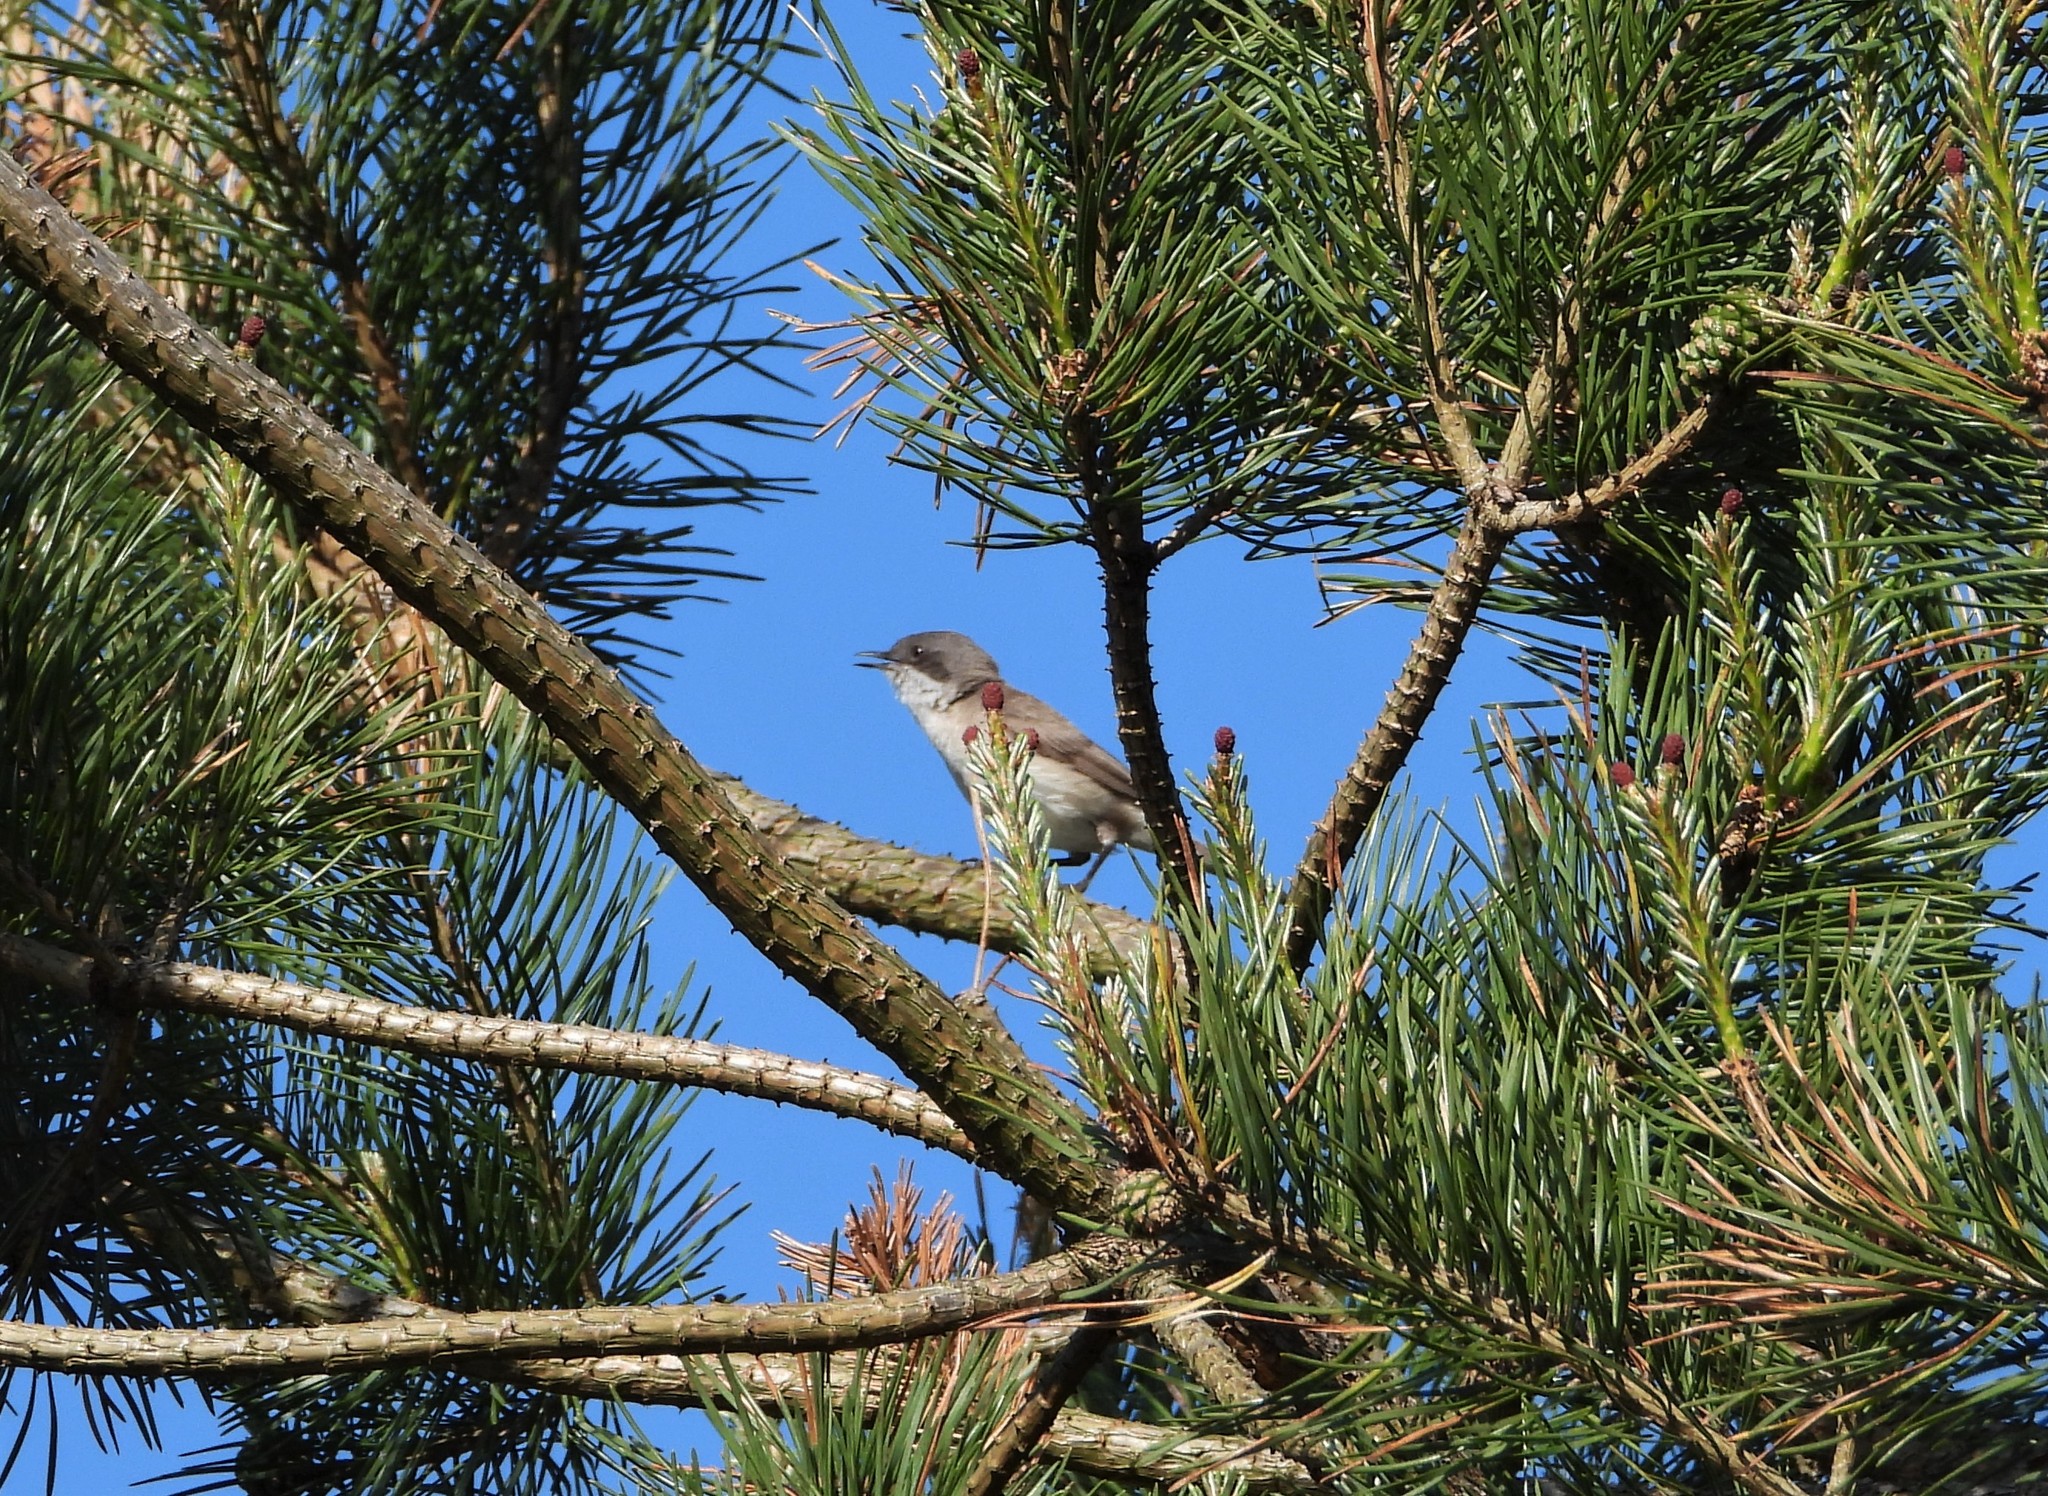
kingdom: Animalia
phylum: Chordata
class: Aves
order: Passeriformes
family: Sylviidae
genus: Sylvia
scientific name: Sylvia curruca
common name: Lesser whitethroat
